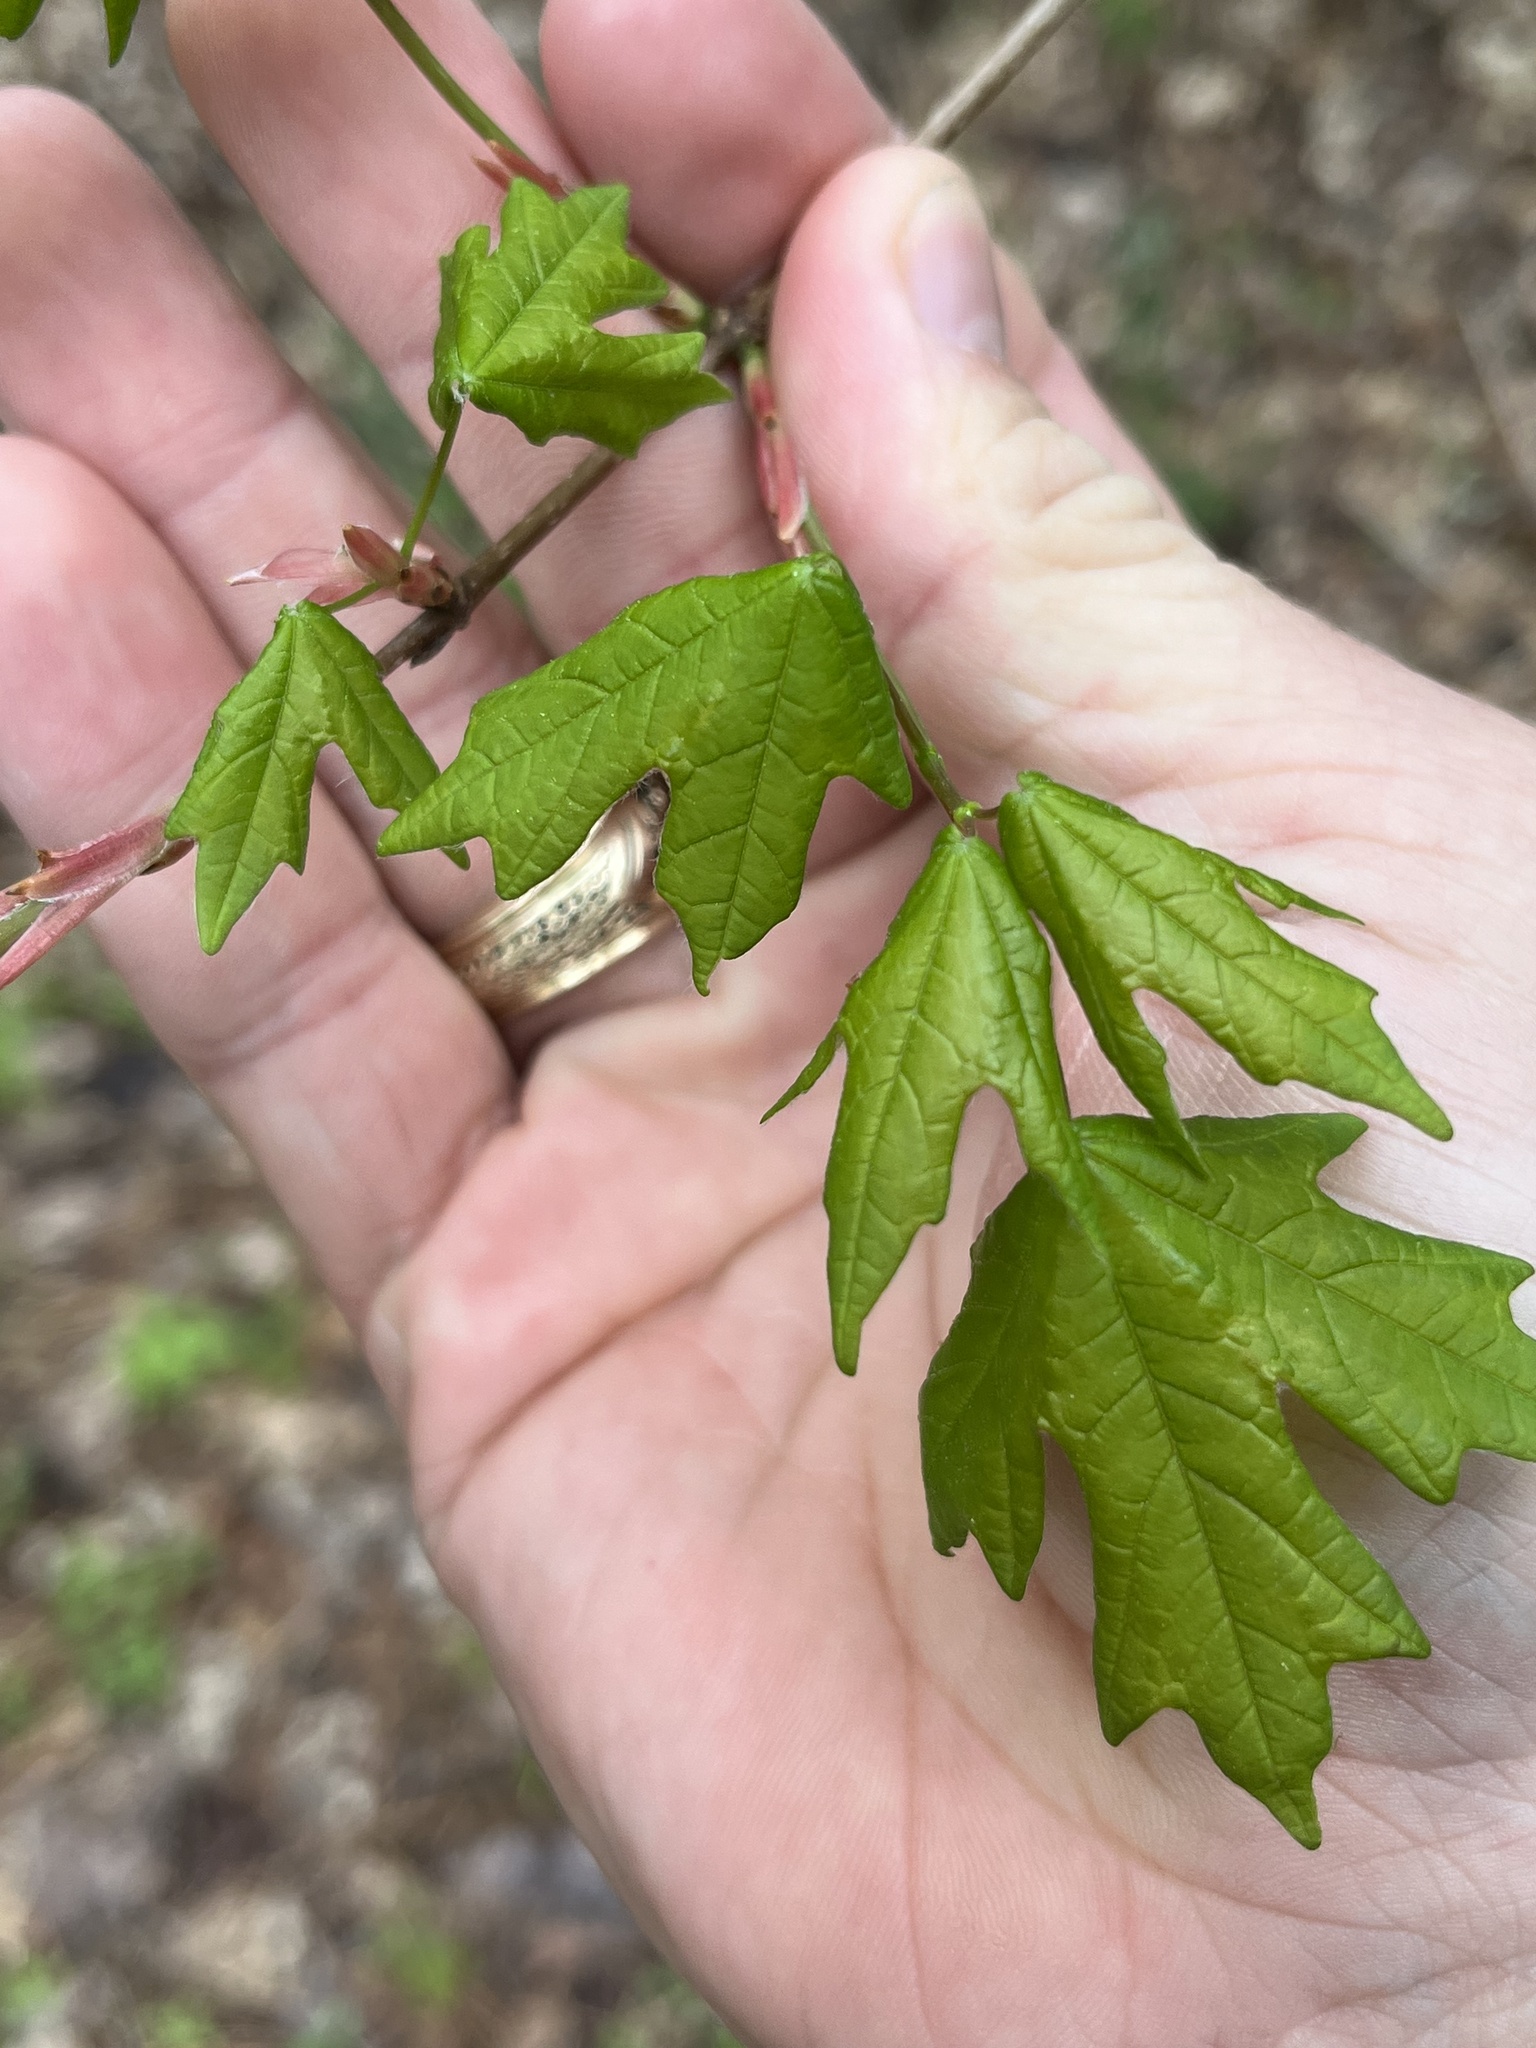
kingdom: Plantae
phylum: Tracheophyta
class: Magnoliopsida
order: Sapindales
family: Sapindaceae
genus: Acer
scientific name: Acer floridanum
